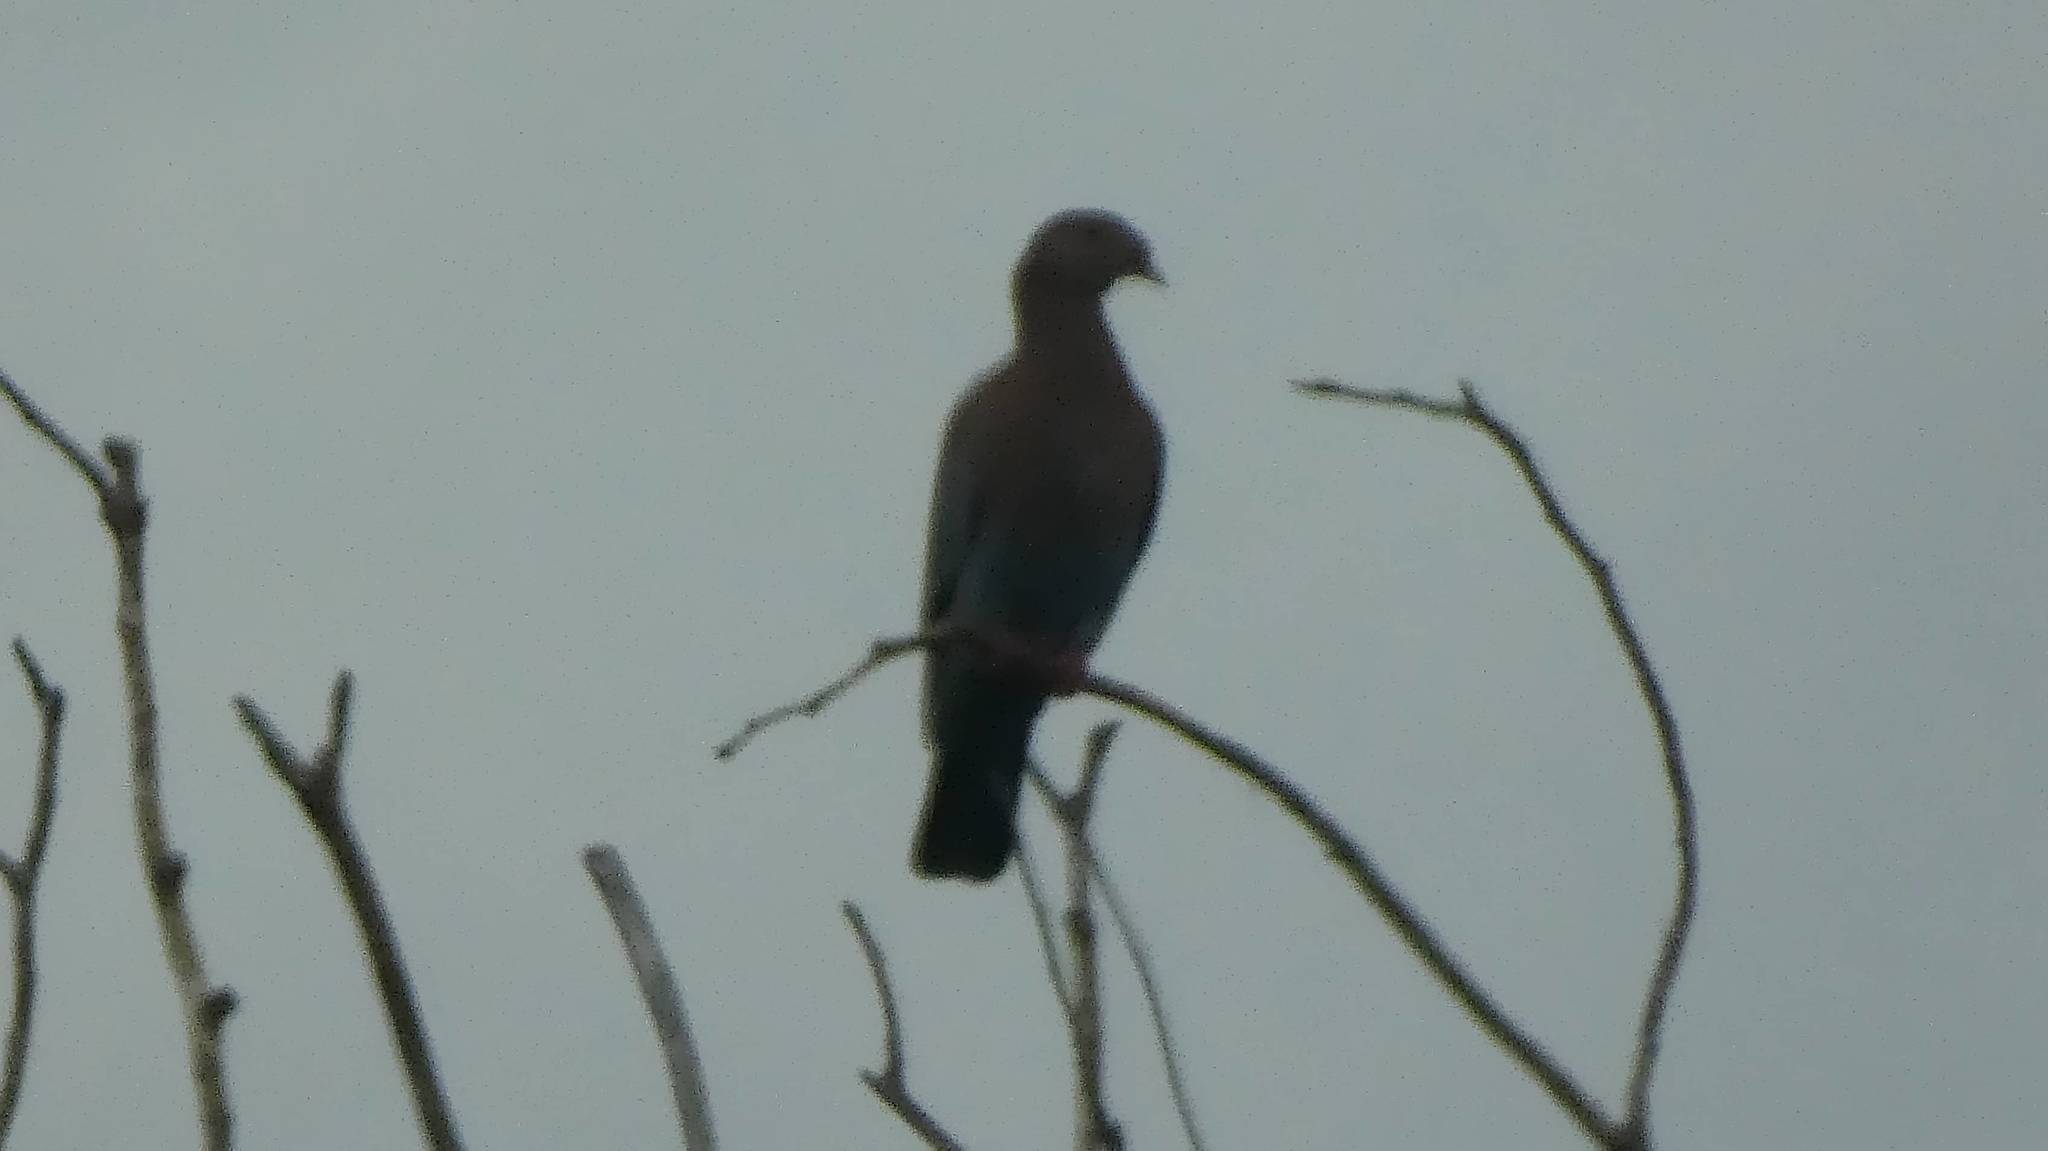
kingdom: Animalia
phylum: Chordata
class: Aves
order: Columbiformes
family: Columbidae
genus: Patagioenas
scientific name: Patagioenas flavirostris
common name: Red-billed pigeon
